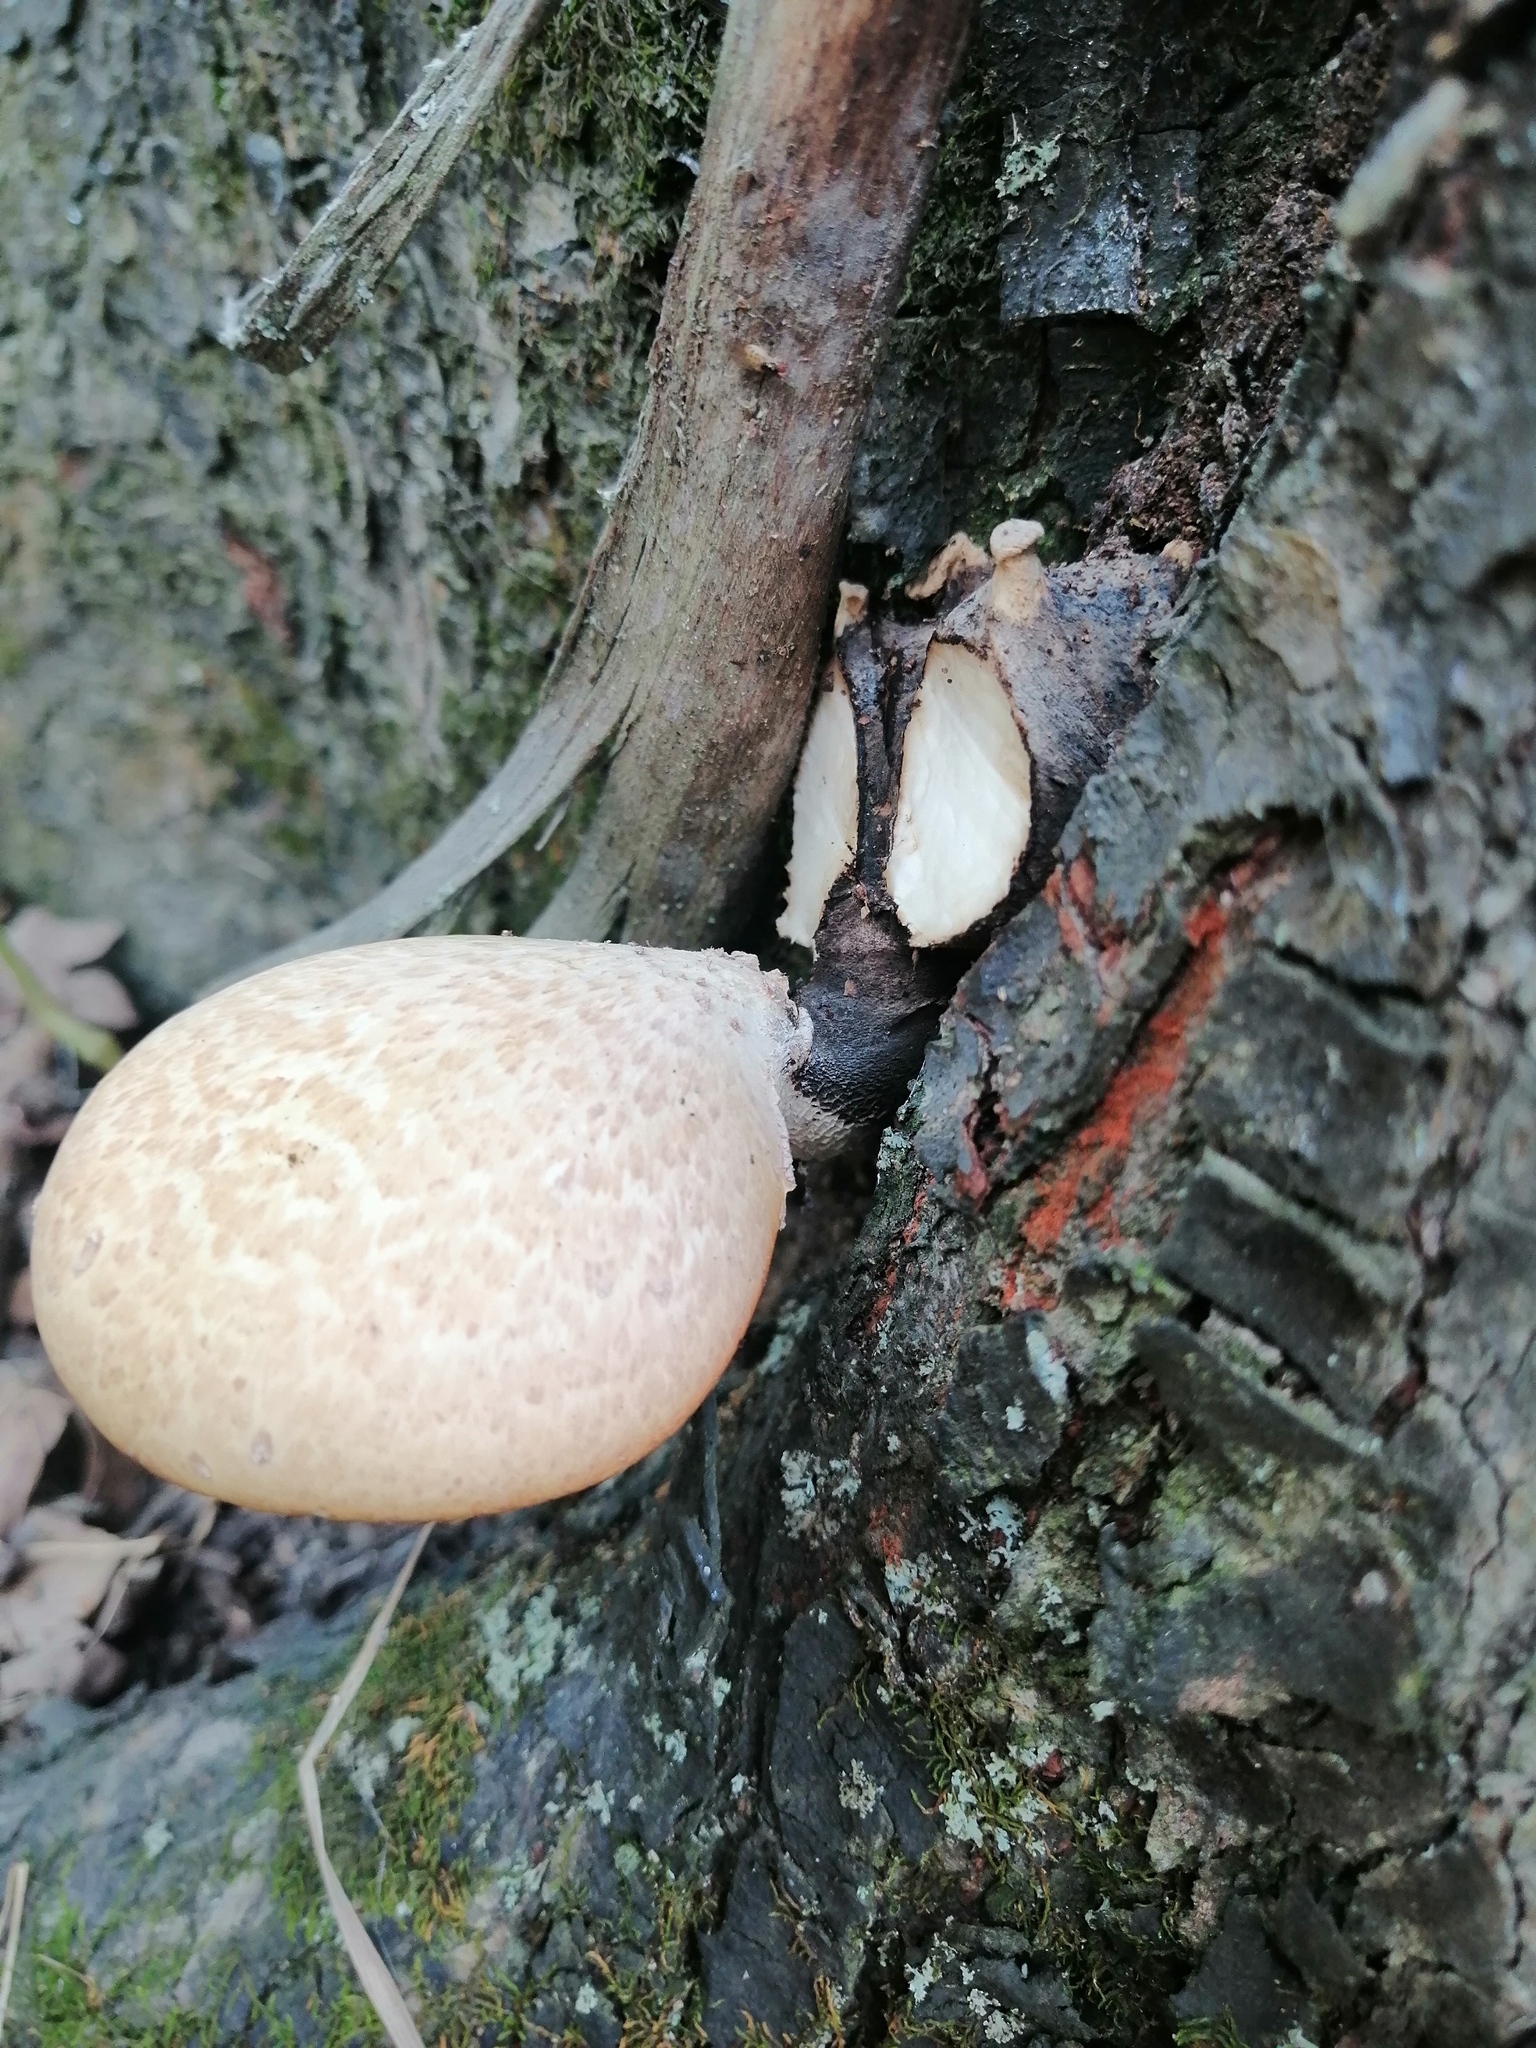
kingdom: Fungi
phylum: Basidiomycota
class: Agaricomycetes
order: Polyporales
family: Polyporaceae
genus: Cerioporus
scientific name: Cerioporus squamosus
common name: Dryad's saddle
